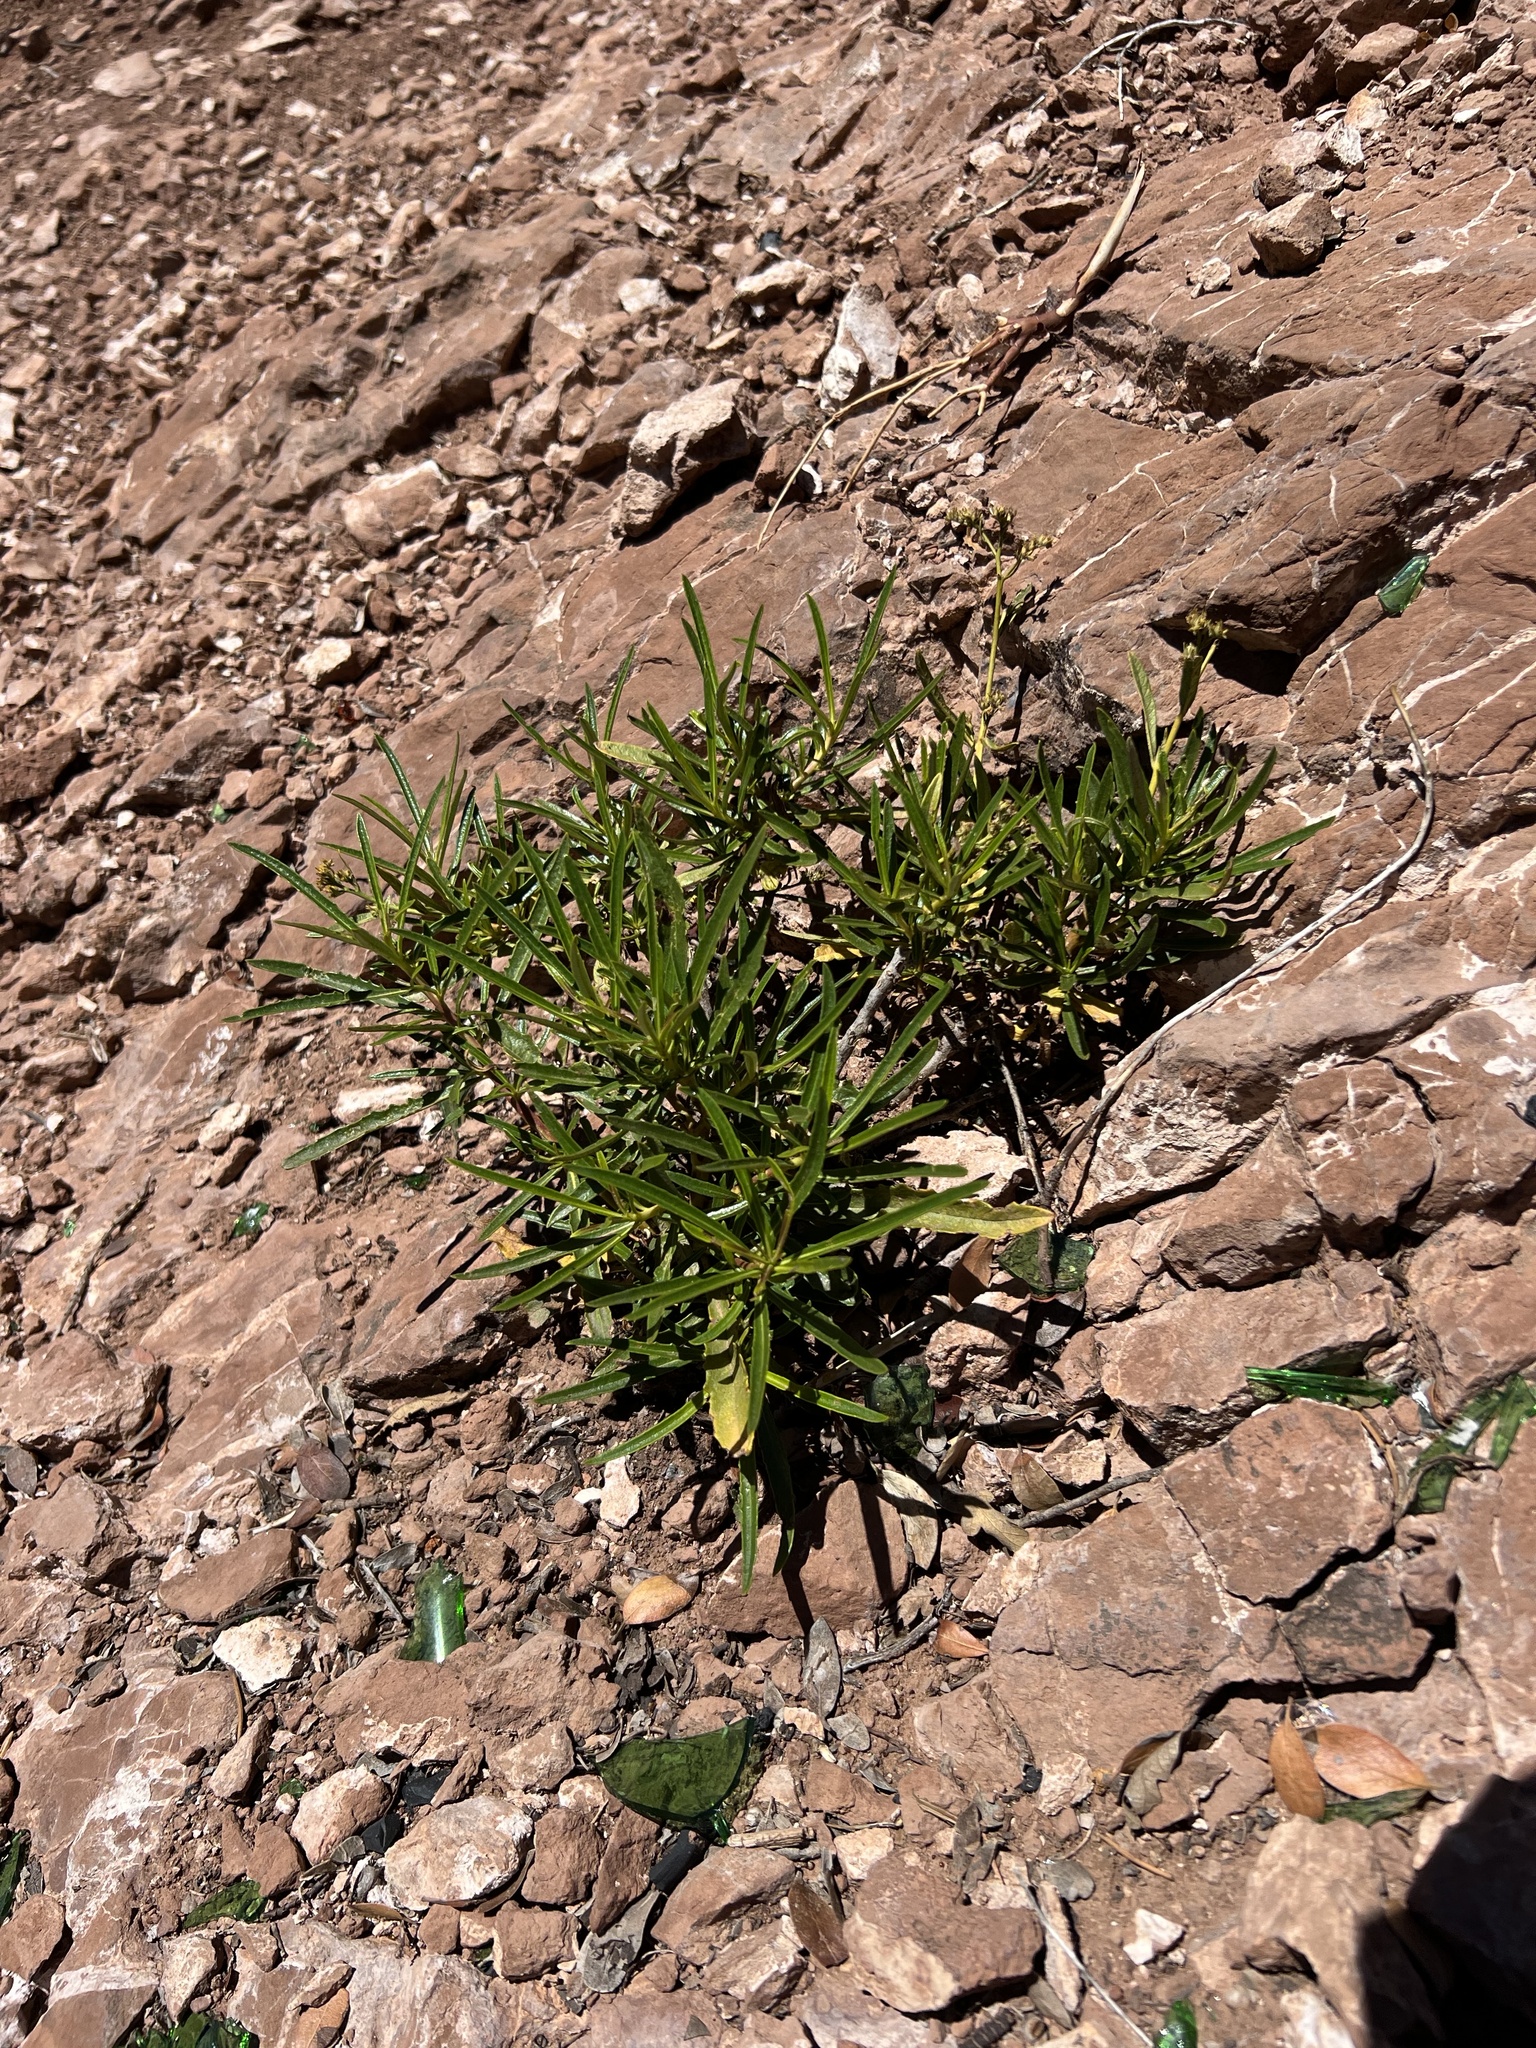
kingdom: Plantae
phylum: Tracheophyta
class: Magnoliopsida
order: Boraginales
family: Namaceae
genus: Eriodictyon
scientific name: Eriodictyon angustifolium
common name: Narrow-leaf yerba santa
